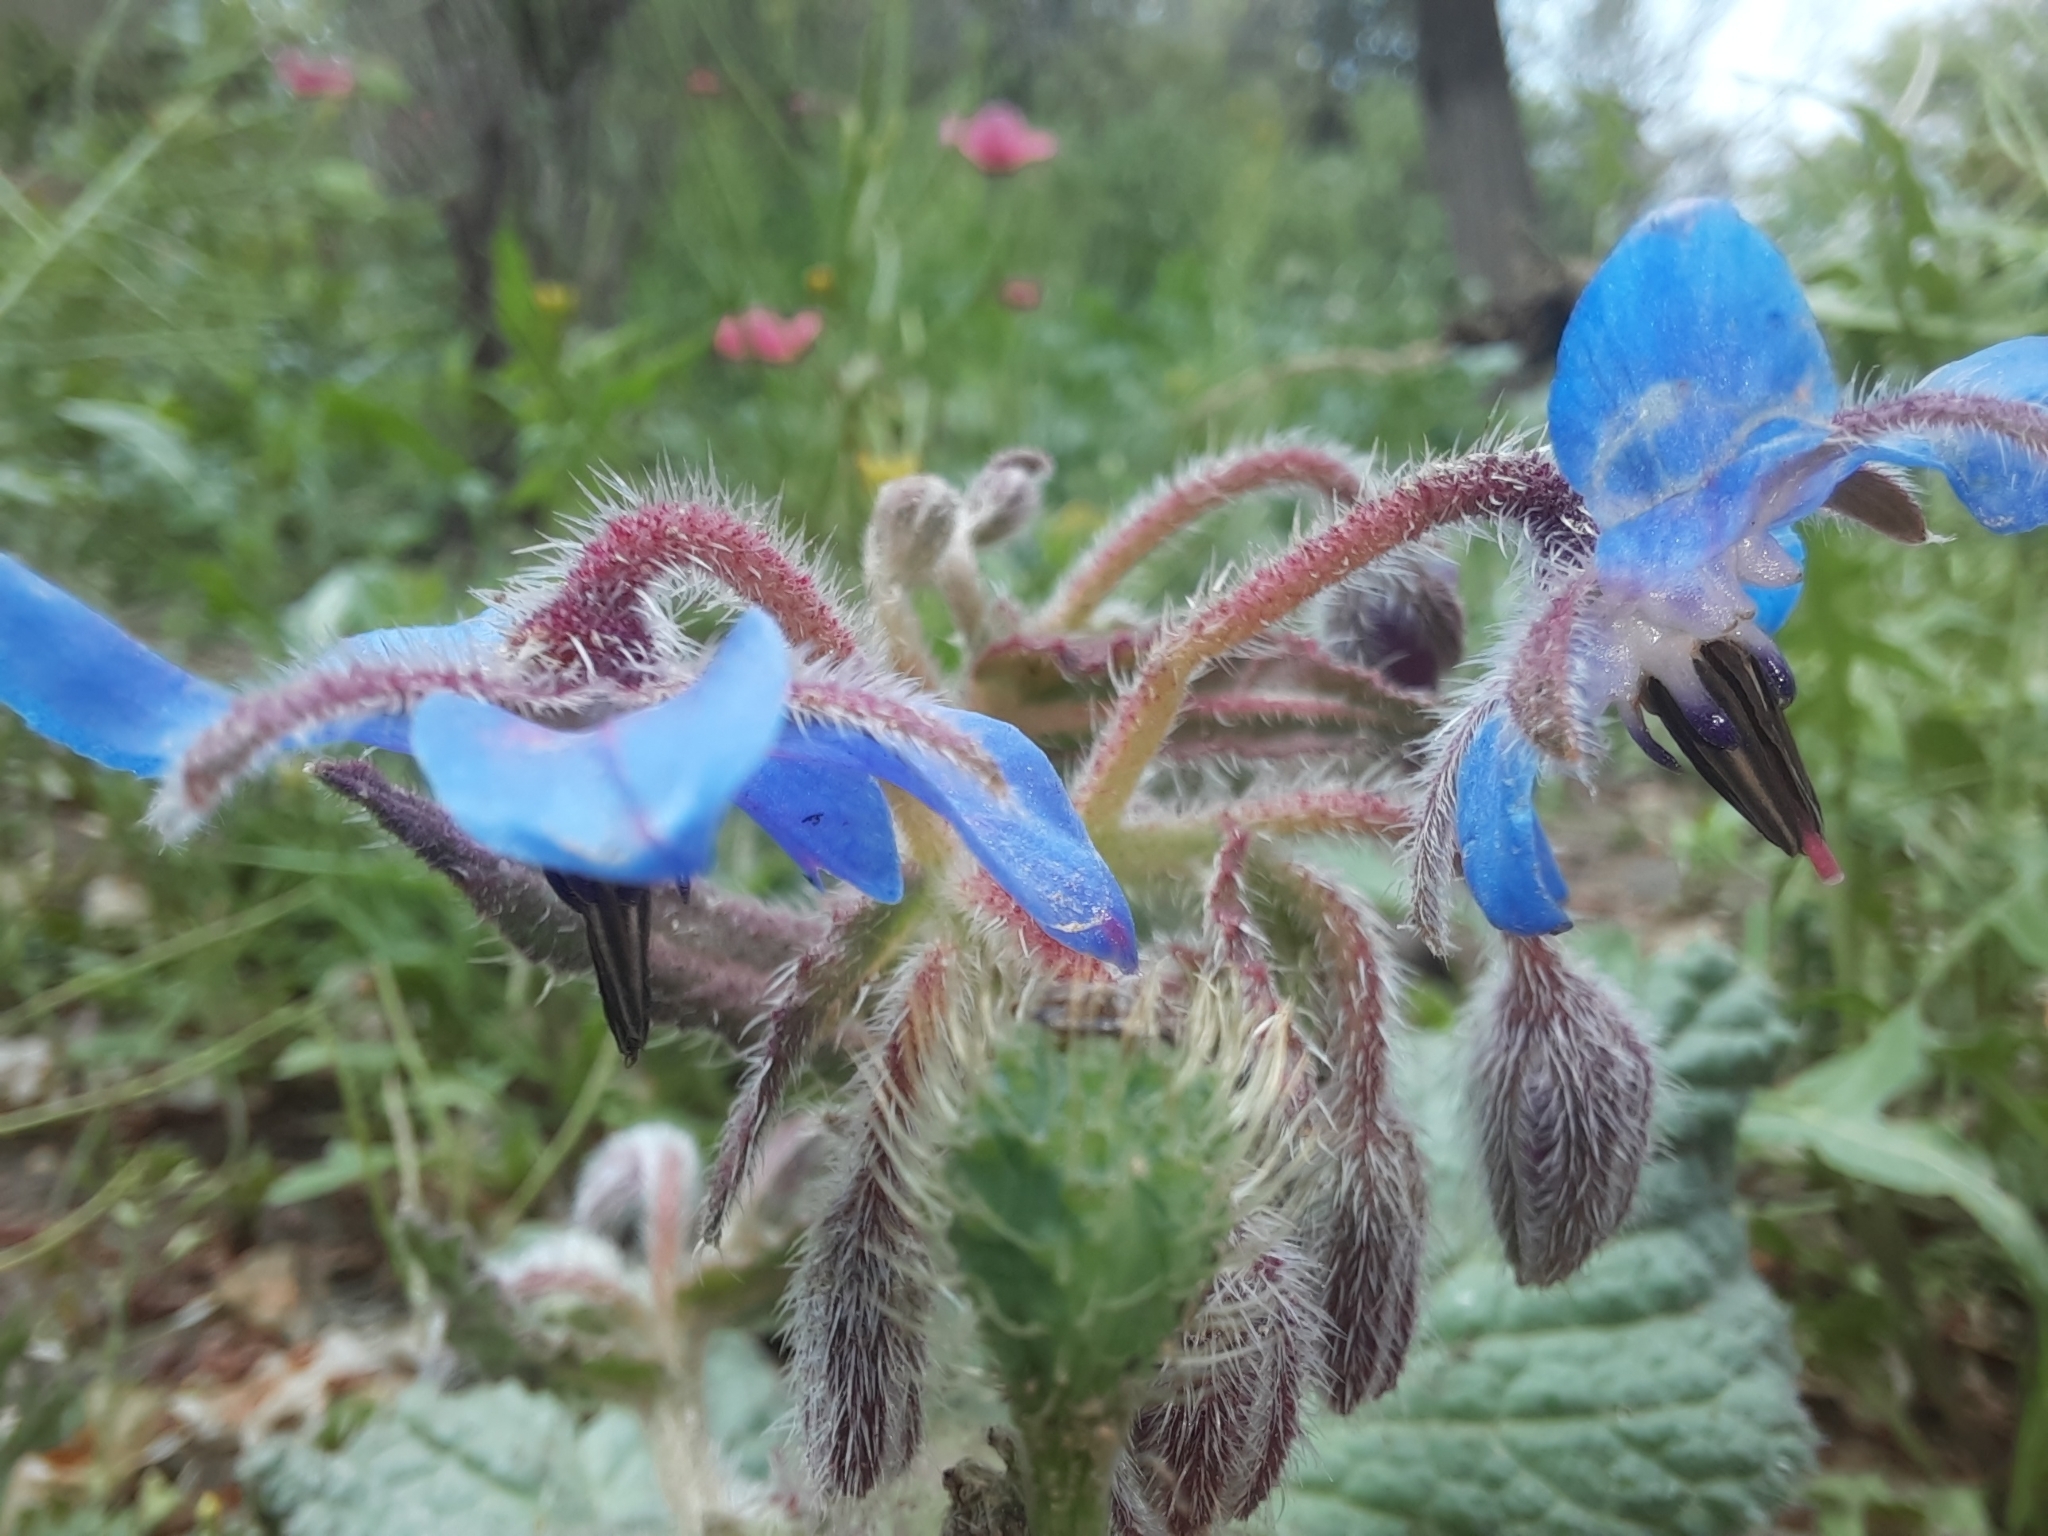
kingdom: Plantae
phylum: Tracheophyta
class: Magnoliopsida
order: Boraginales
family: Boraginaceae
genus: Borago
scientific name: Borago officinalis
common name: Borage
